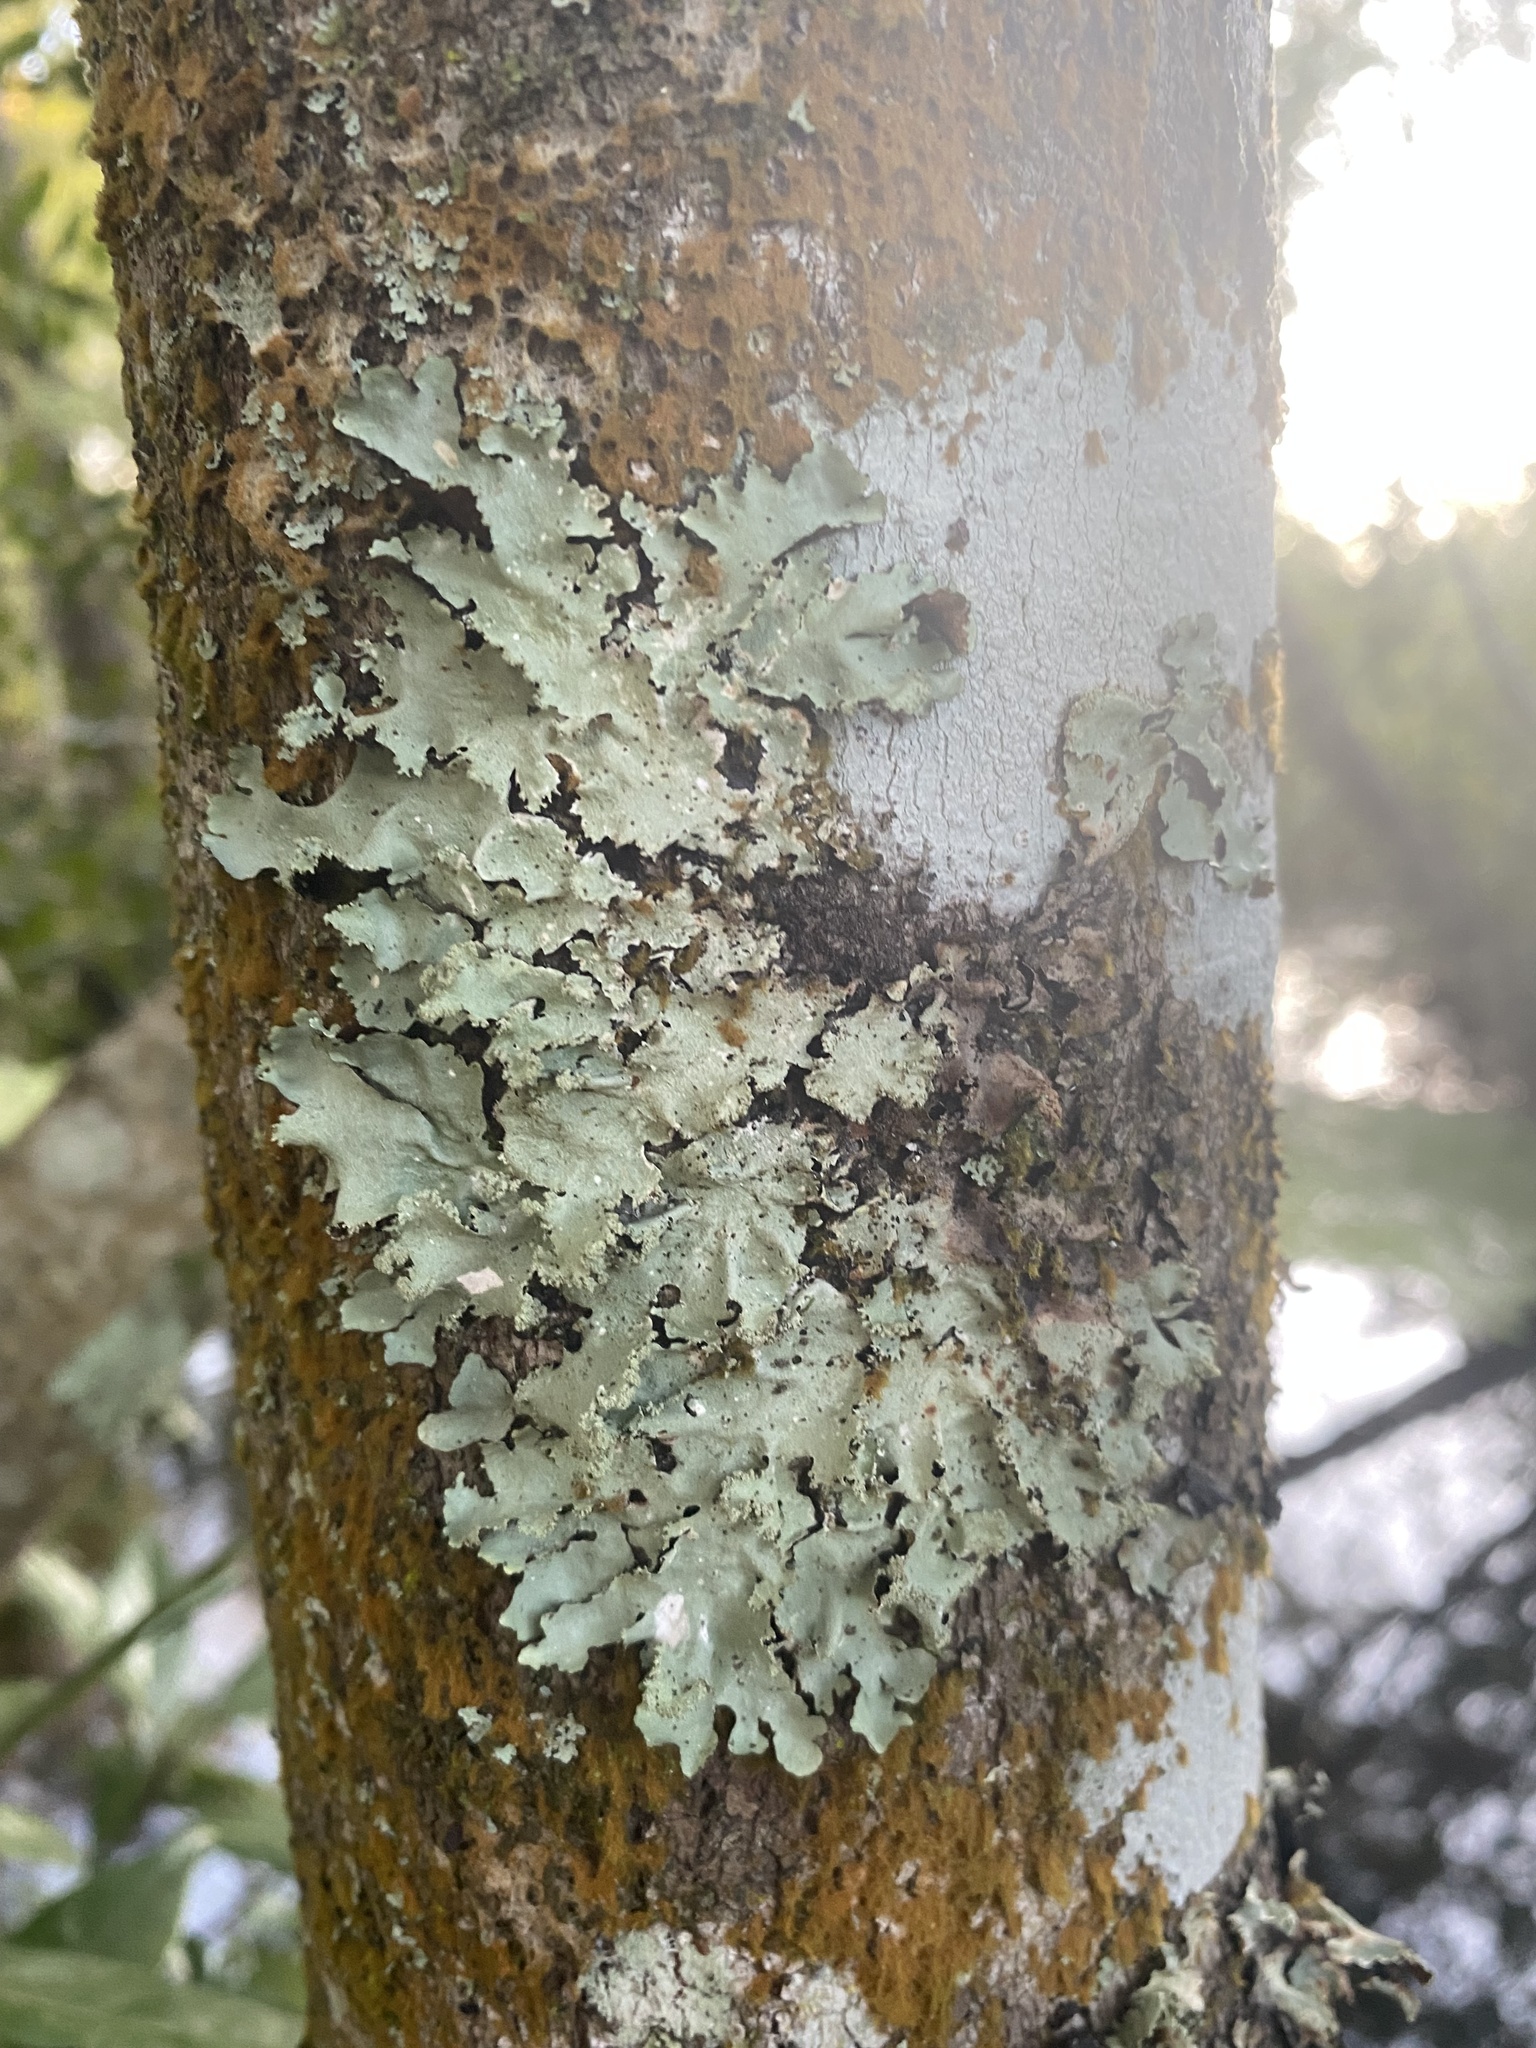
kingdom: Fungi
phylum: Ascomycota
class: Lecanoromycetes
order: Lecanorales
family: Parmeliaceae
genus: Rimelia
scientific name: Rimelia subisidiosa
